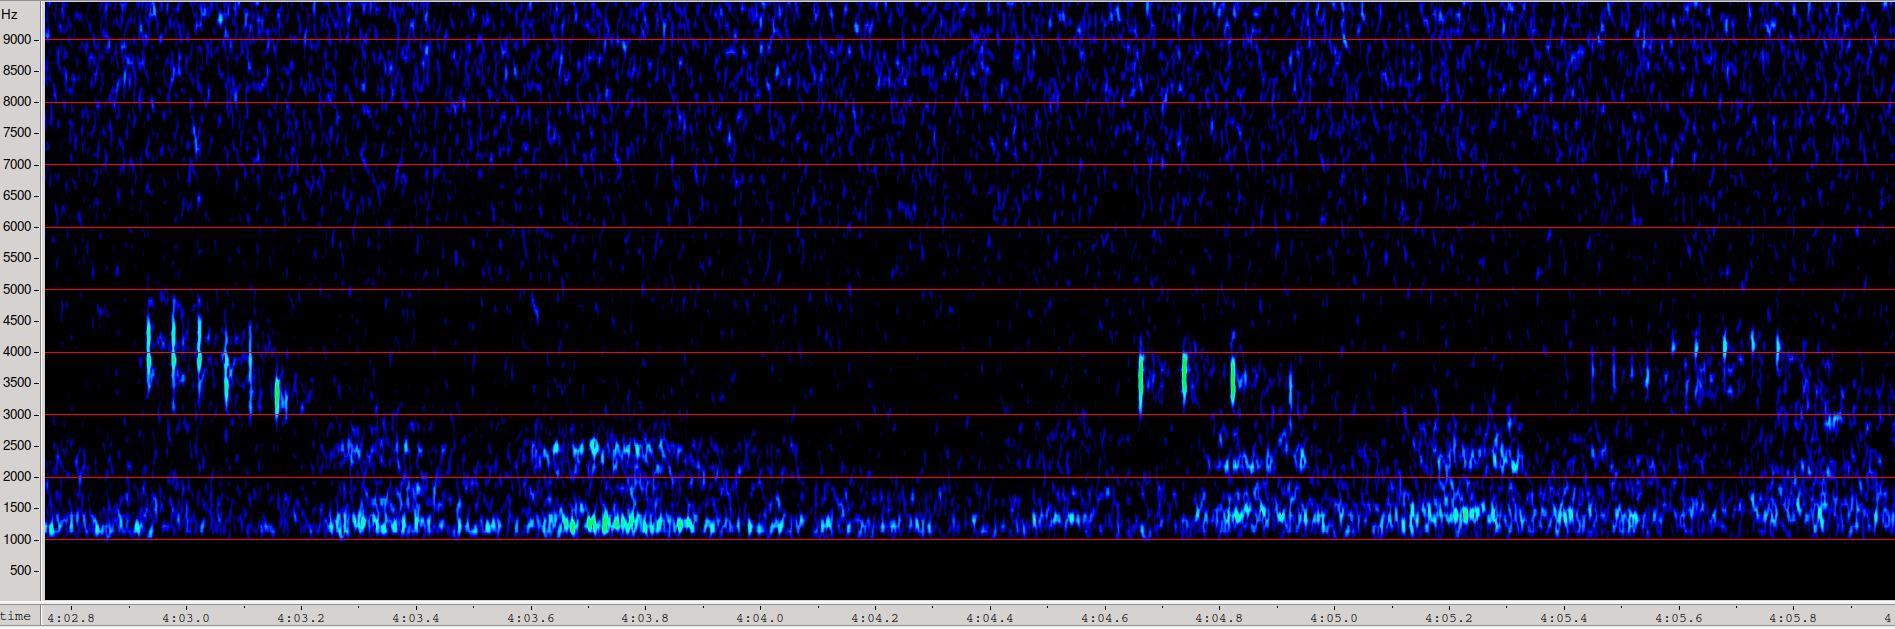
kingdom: Animalia
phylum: Arthropoda
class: Insecta
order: Orthoptera
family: Tettigoniidae
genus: Leptophyes
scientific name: Leptophyes punctatissima
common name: Speckled bush-cricket
